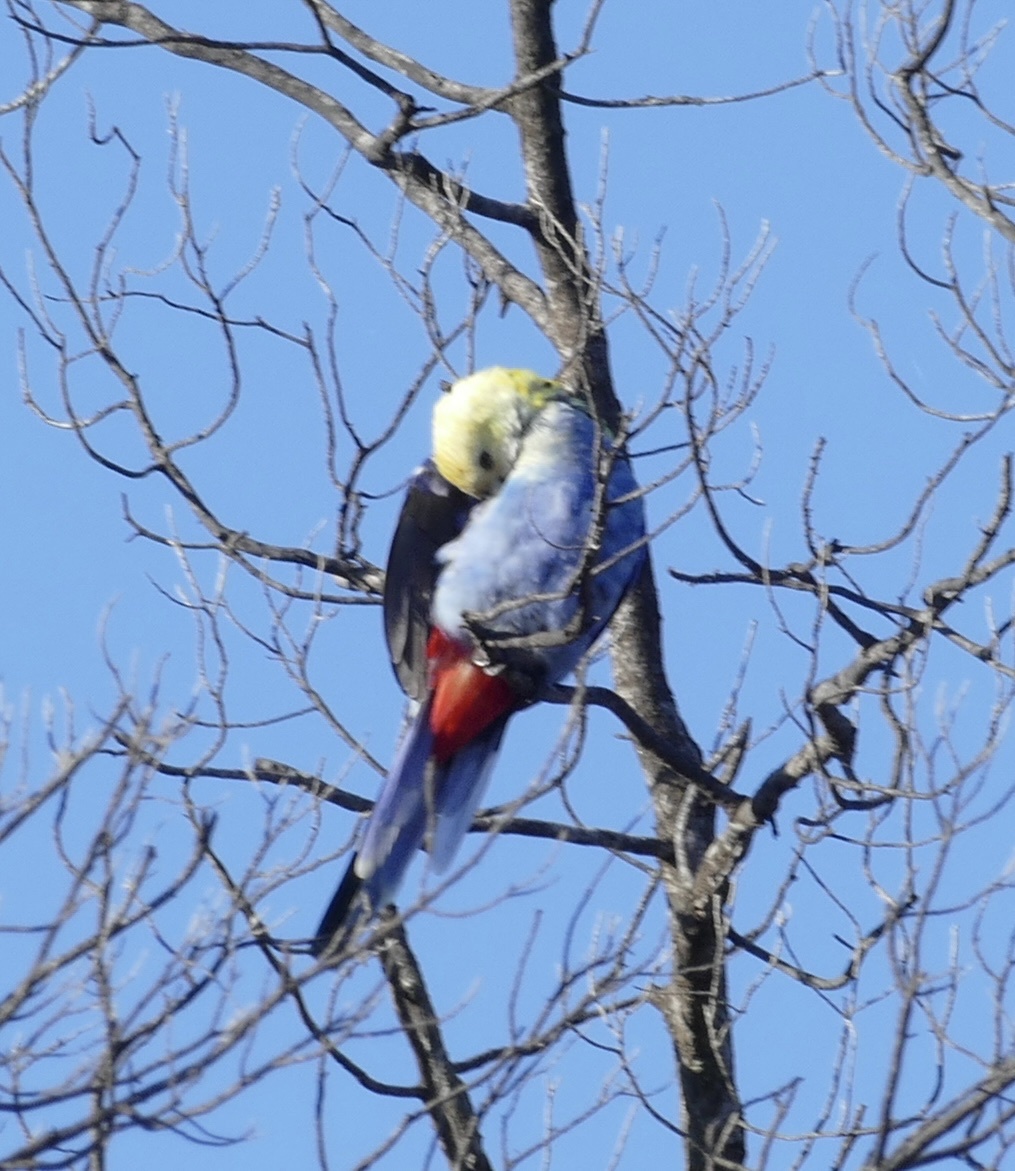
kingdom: Animalia
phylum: Chordata
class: Aves
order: Psittaciformes
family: Psittacidae
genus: Platycercus
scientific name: Platycercus adscitus
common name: Pale-headed rosella
